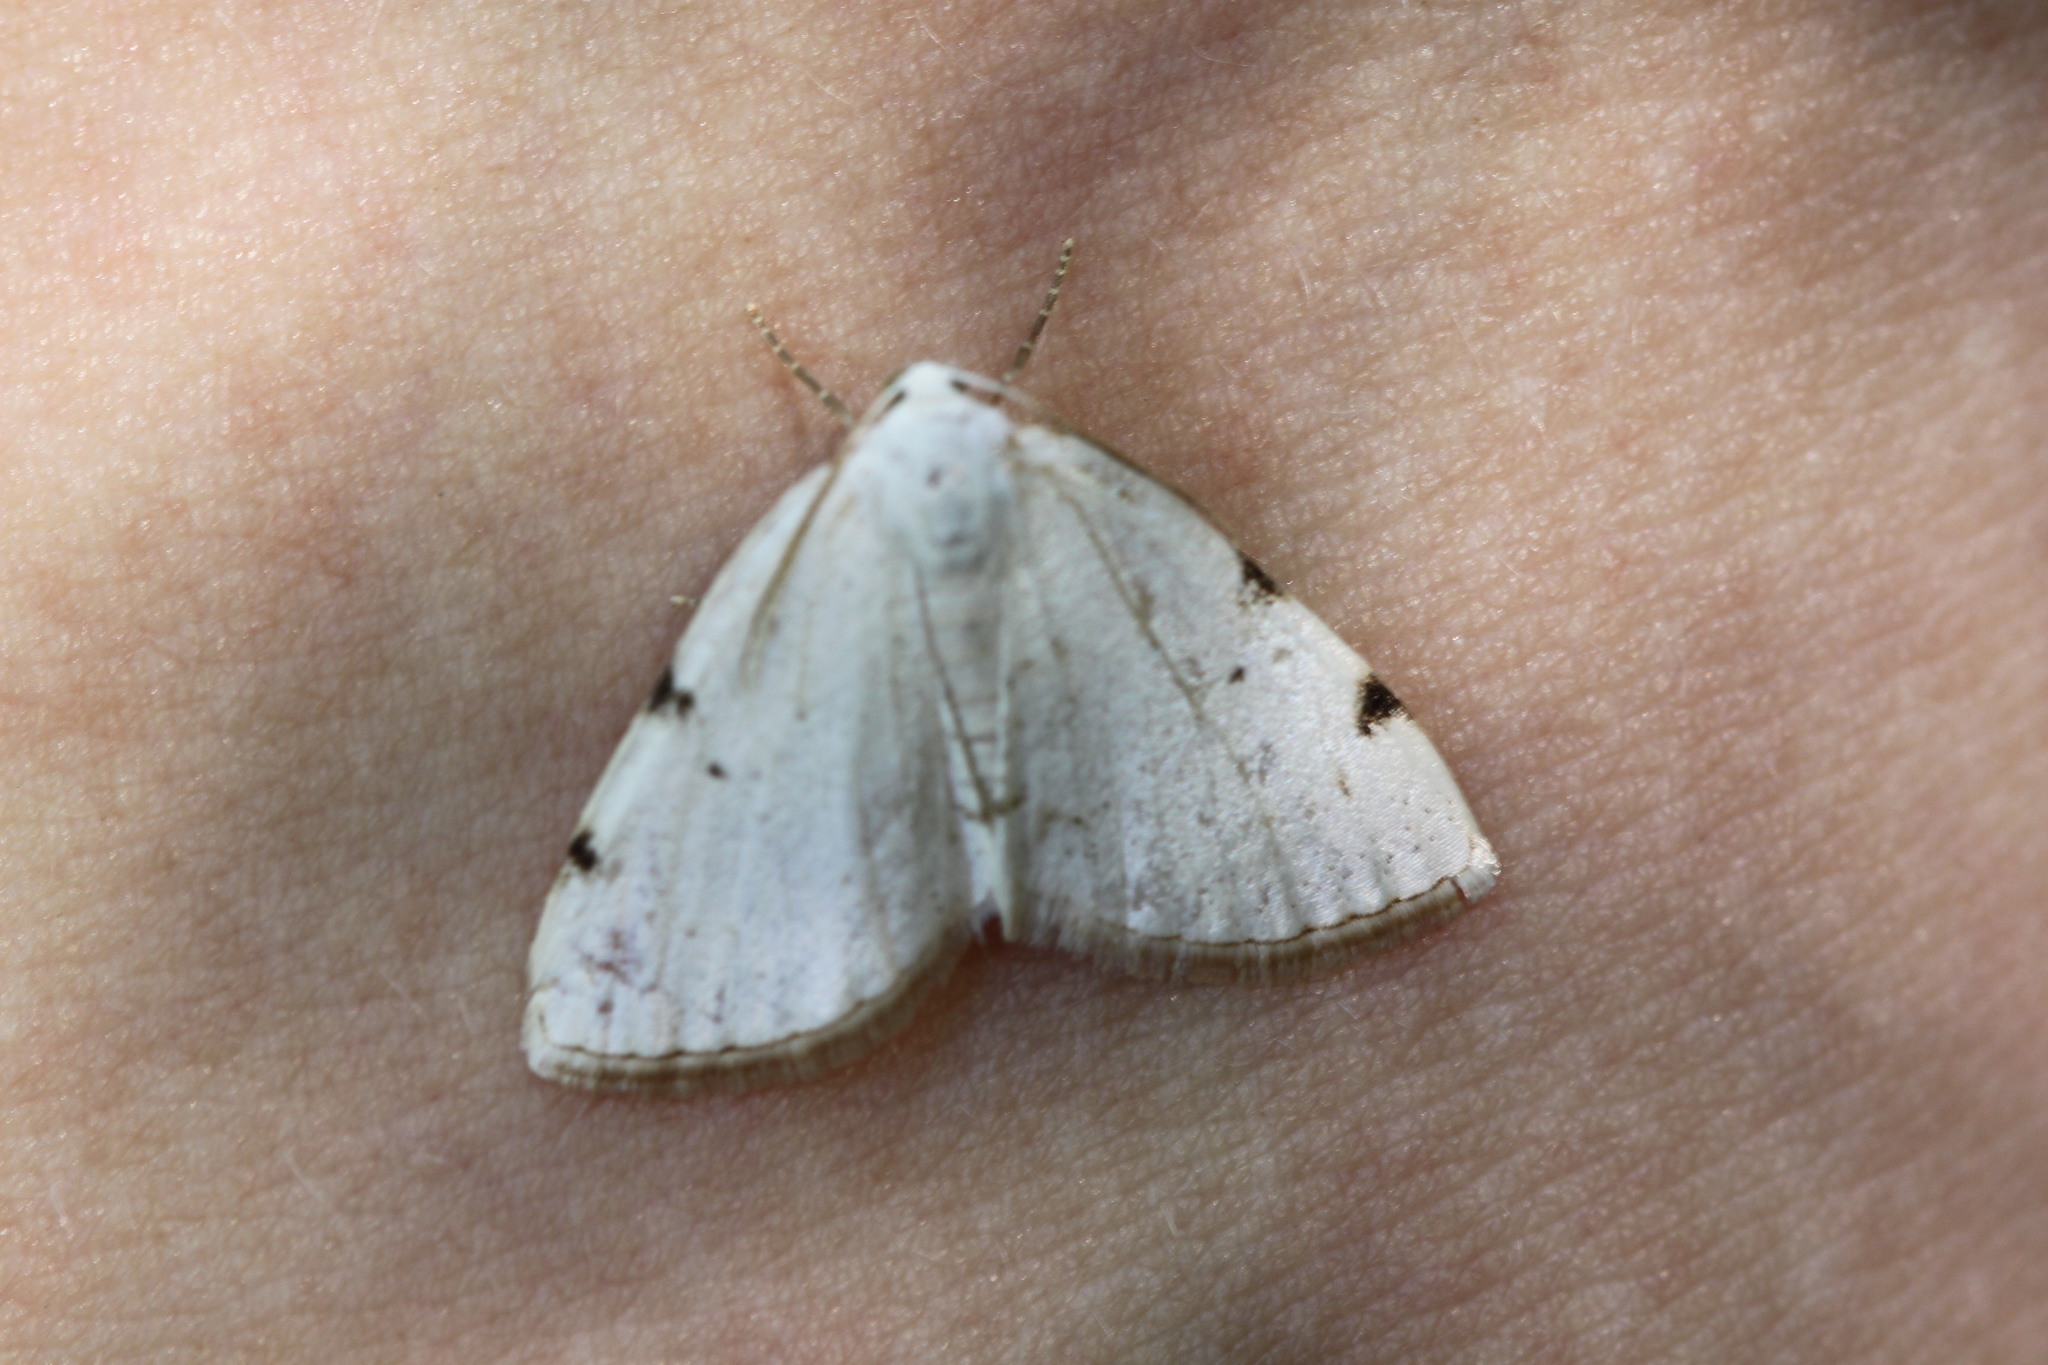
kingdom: Animalia
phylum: Arthropoda
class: Insecta
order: Lepidoptera
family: Geometridae
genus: Lomographa
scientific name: Lomographa bimaculata
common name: White-pinion spotted
